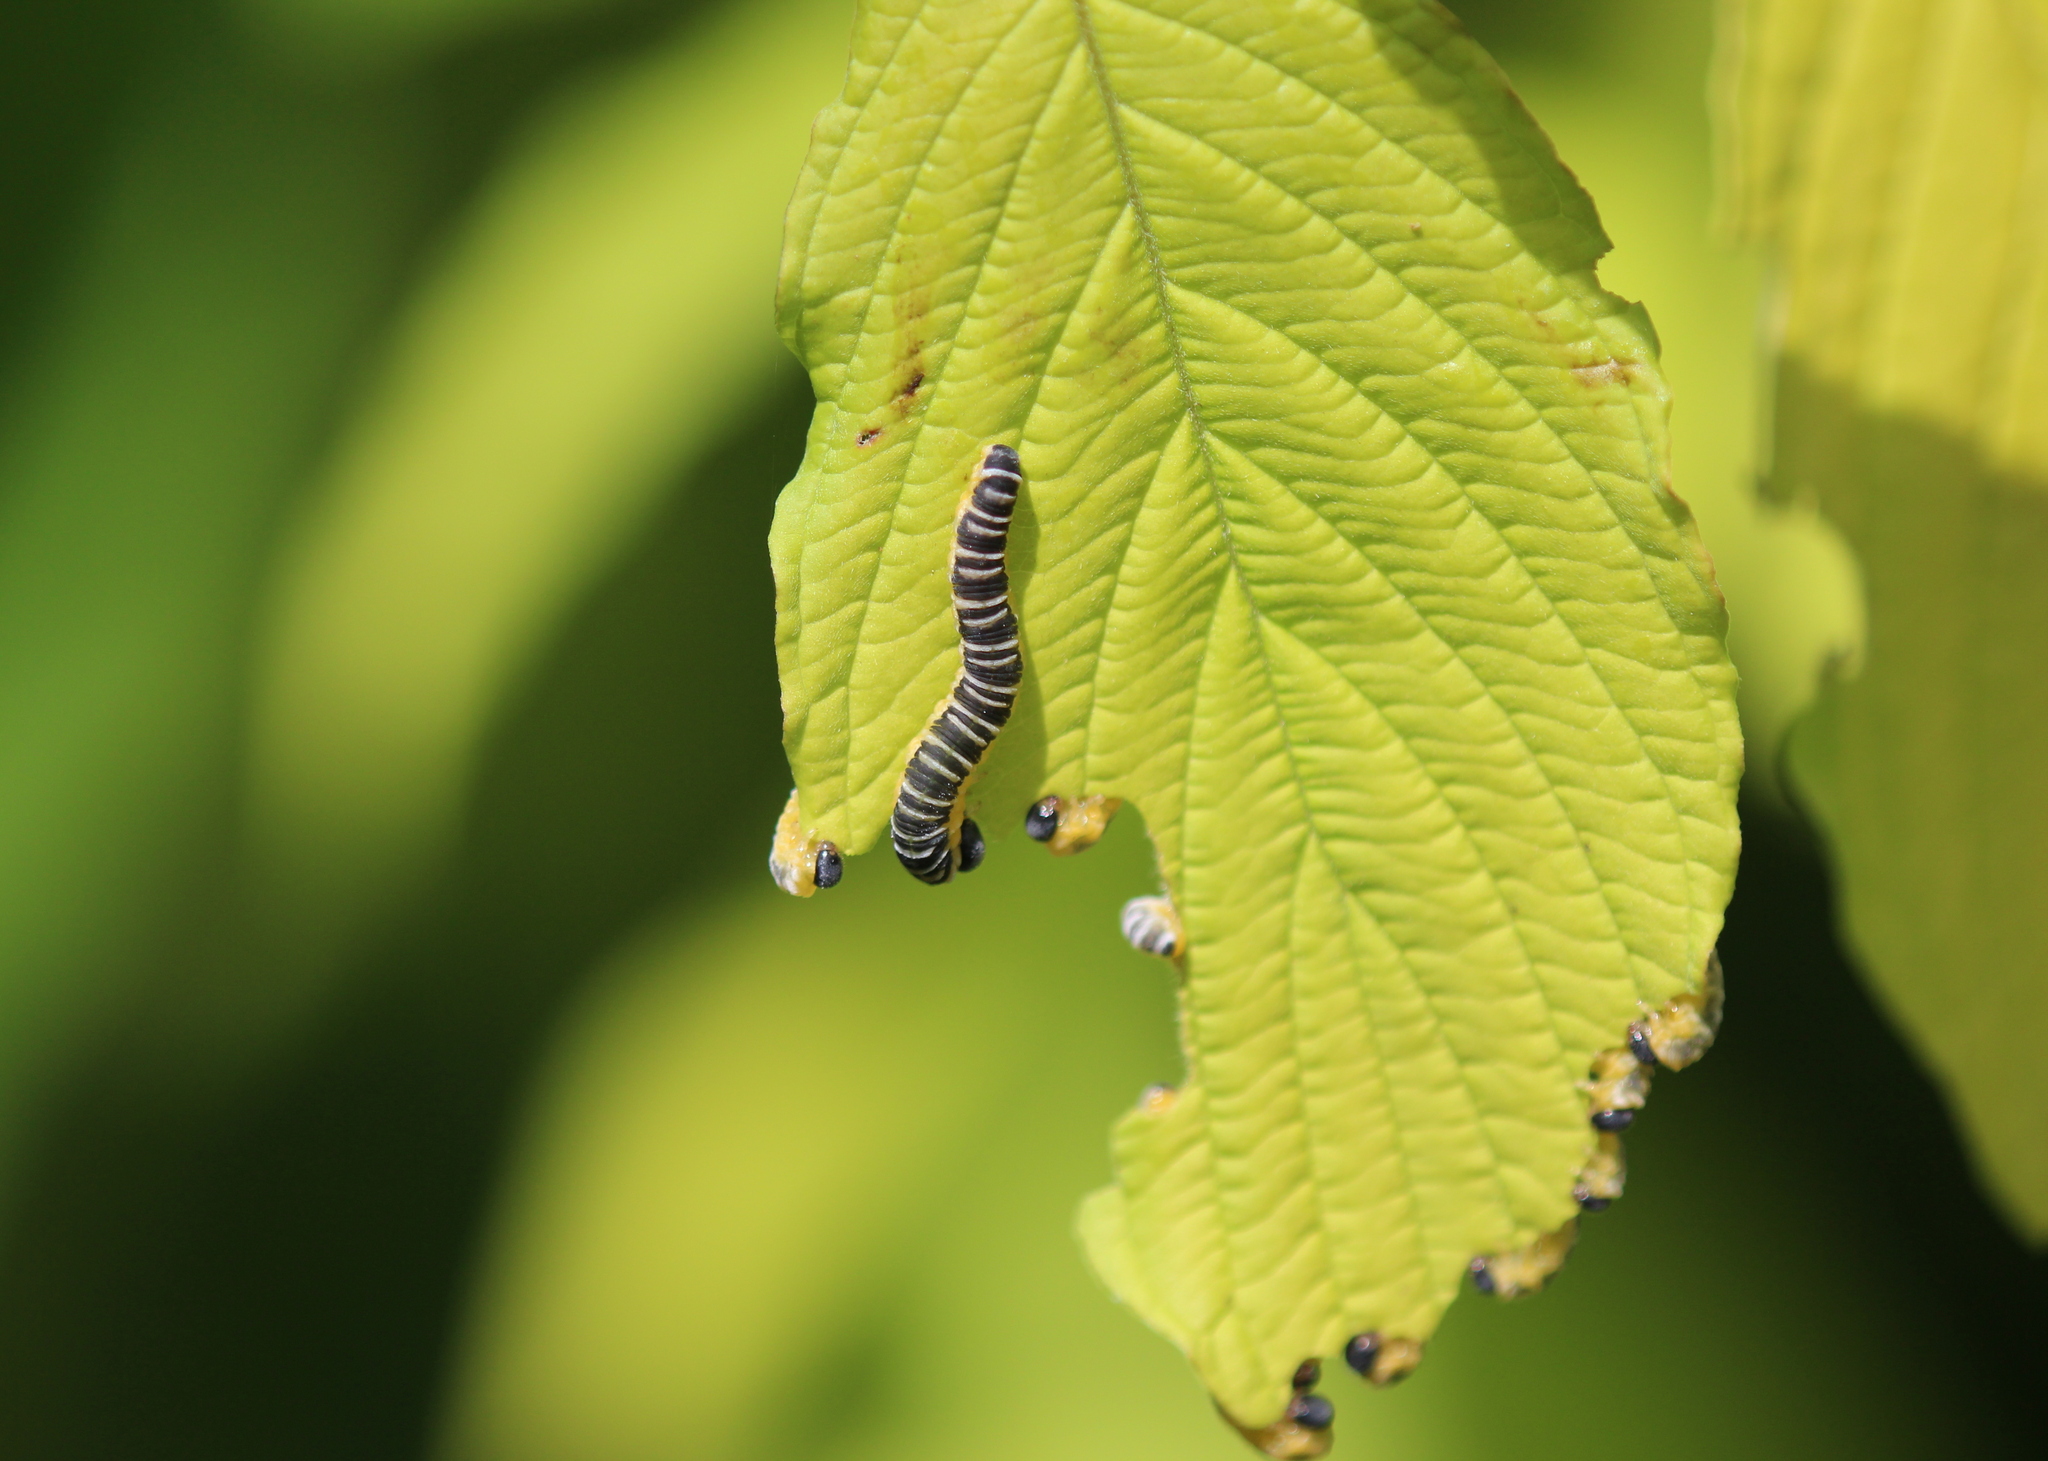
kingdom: Animalia
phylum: Arthropoda
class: Insecta
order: Hymenoptera
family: Tenthredinidae
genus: Macremphytus
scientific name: Macremphytus
